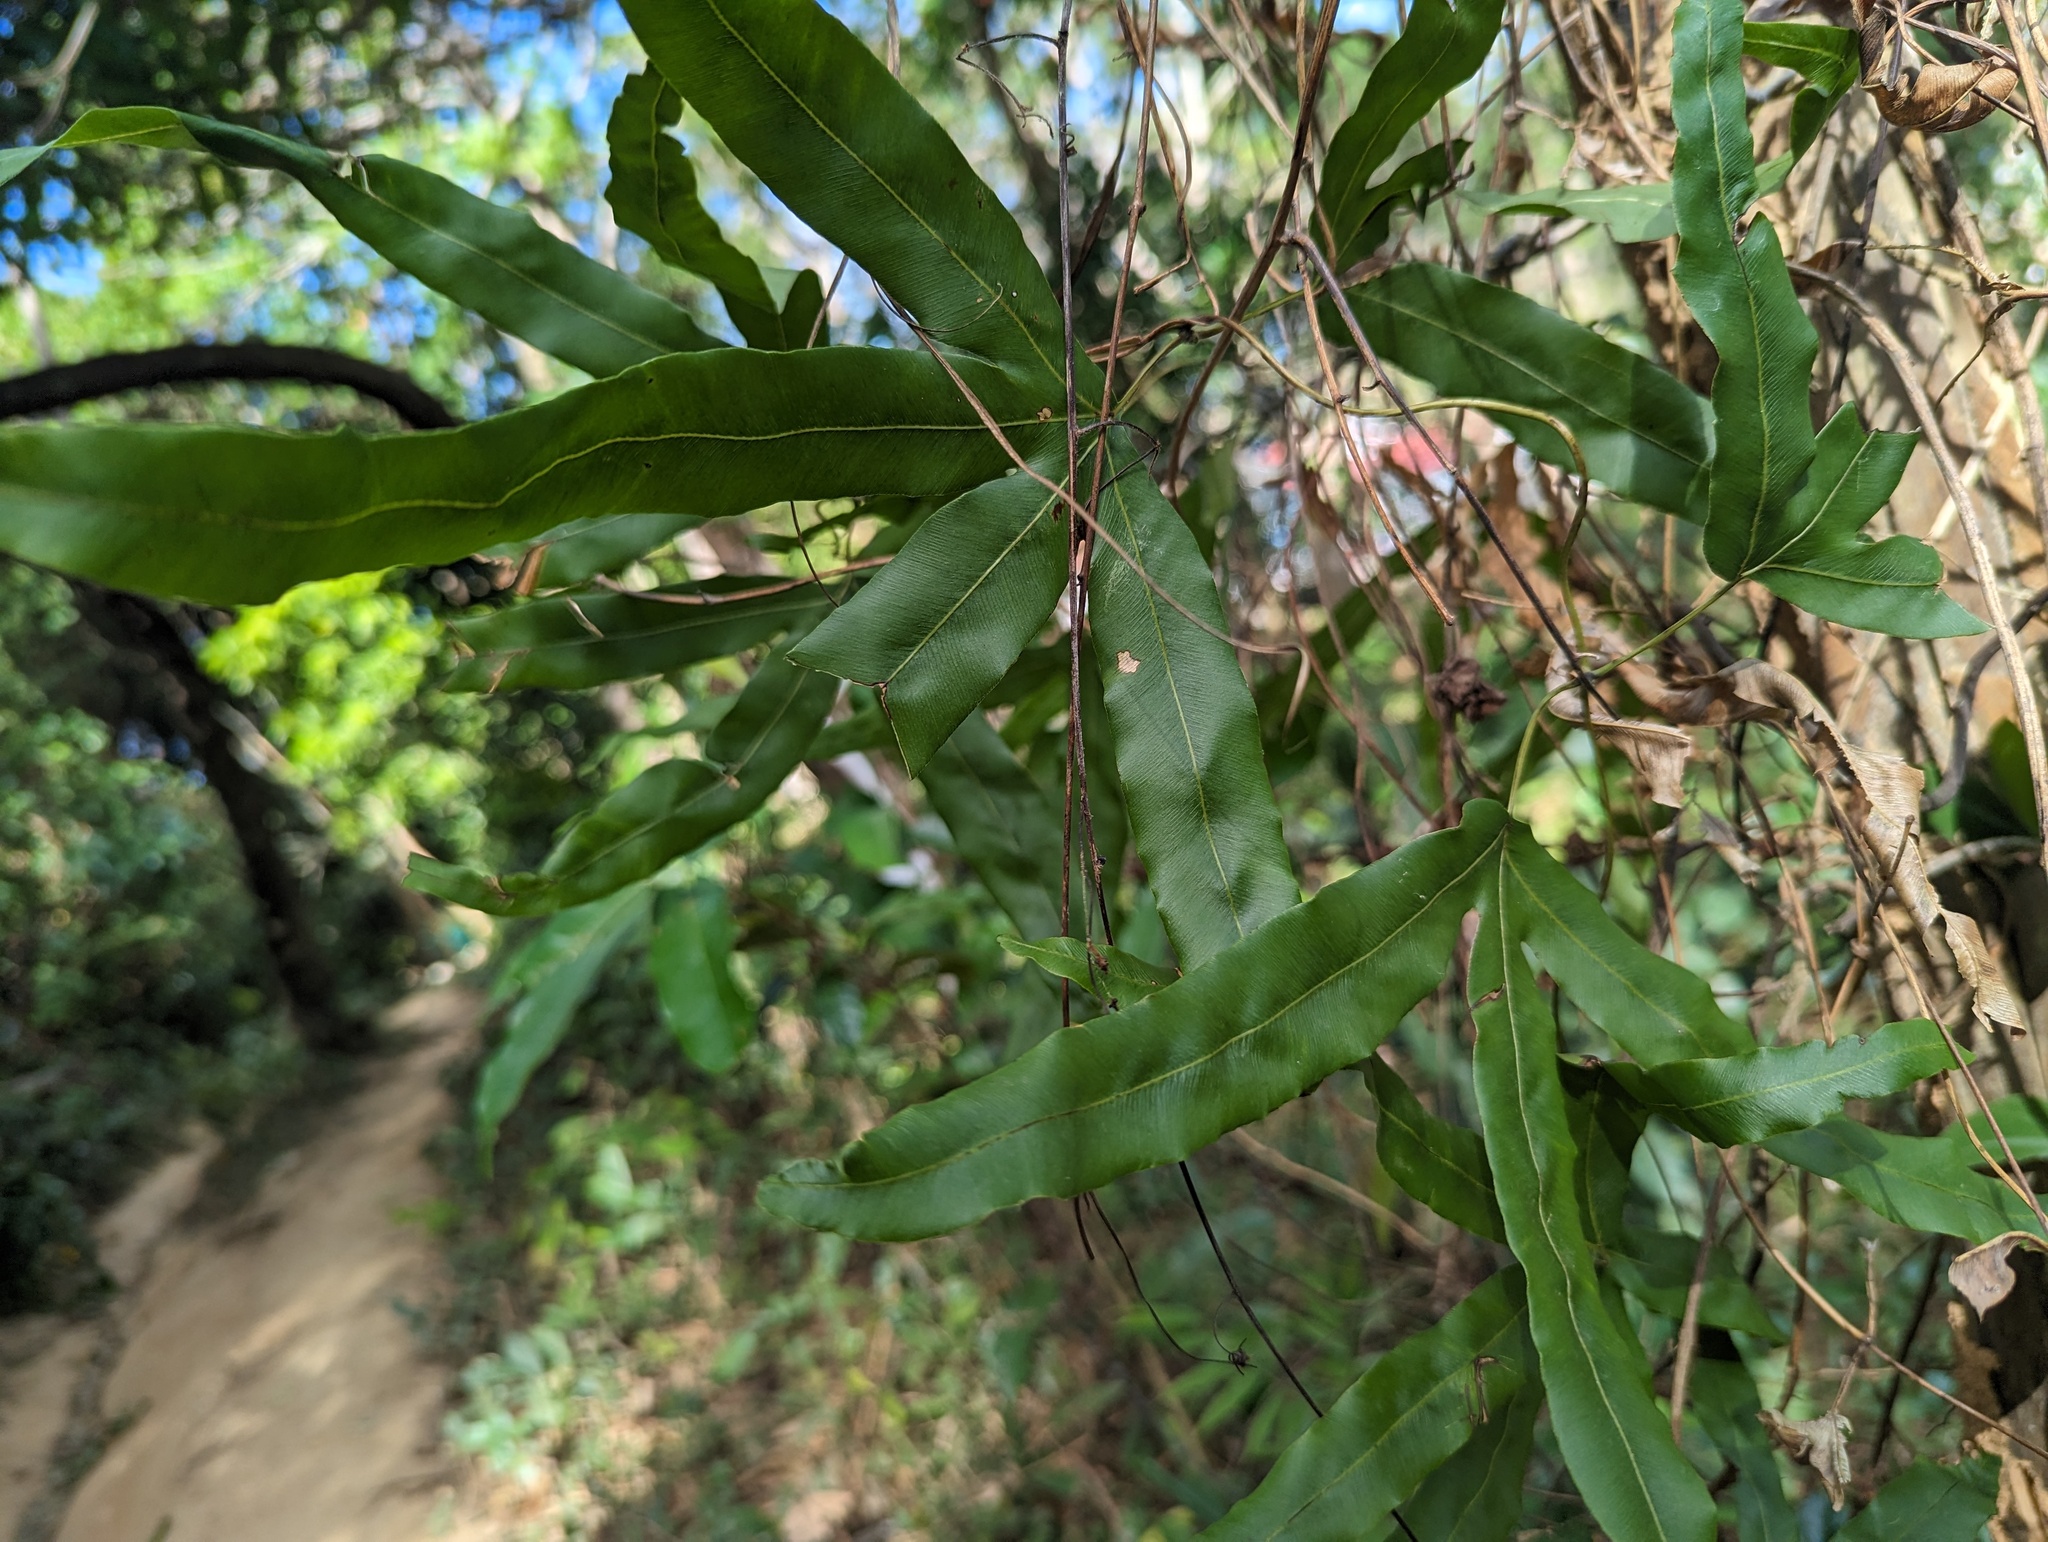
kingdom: Plantae
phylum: Tracheophyta
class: Polypodiopsida
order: Schizaeales
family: Lygodiaceae
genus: Lygodium
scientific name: Lygodium circinnatum
